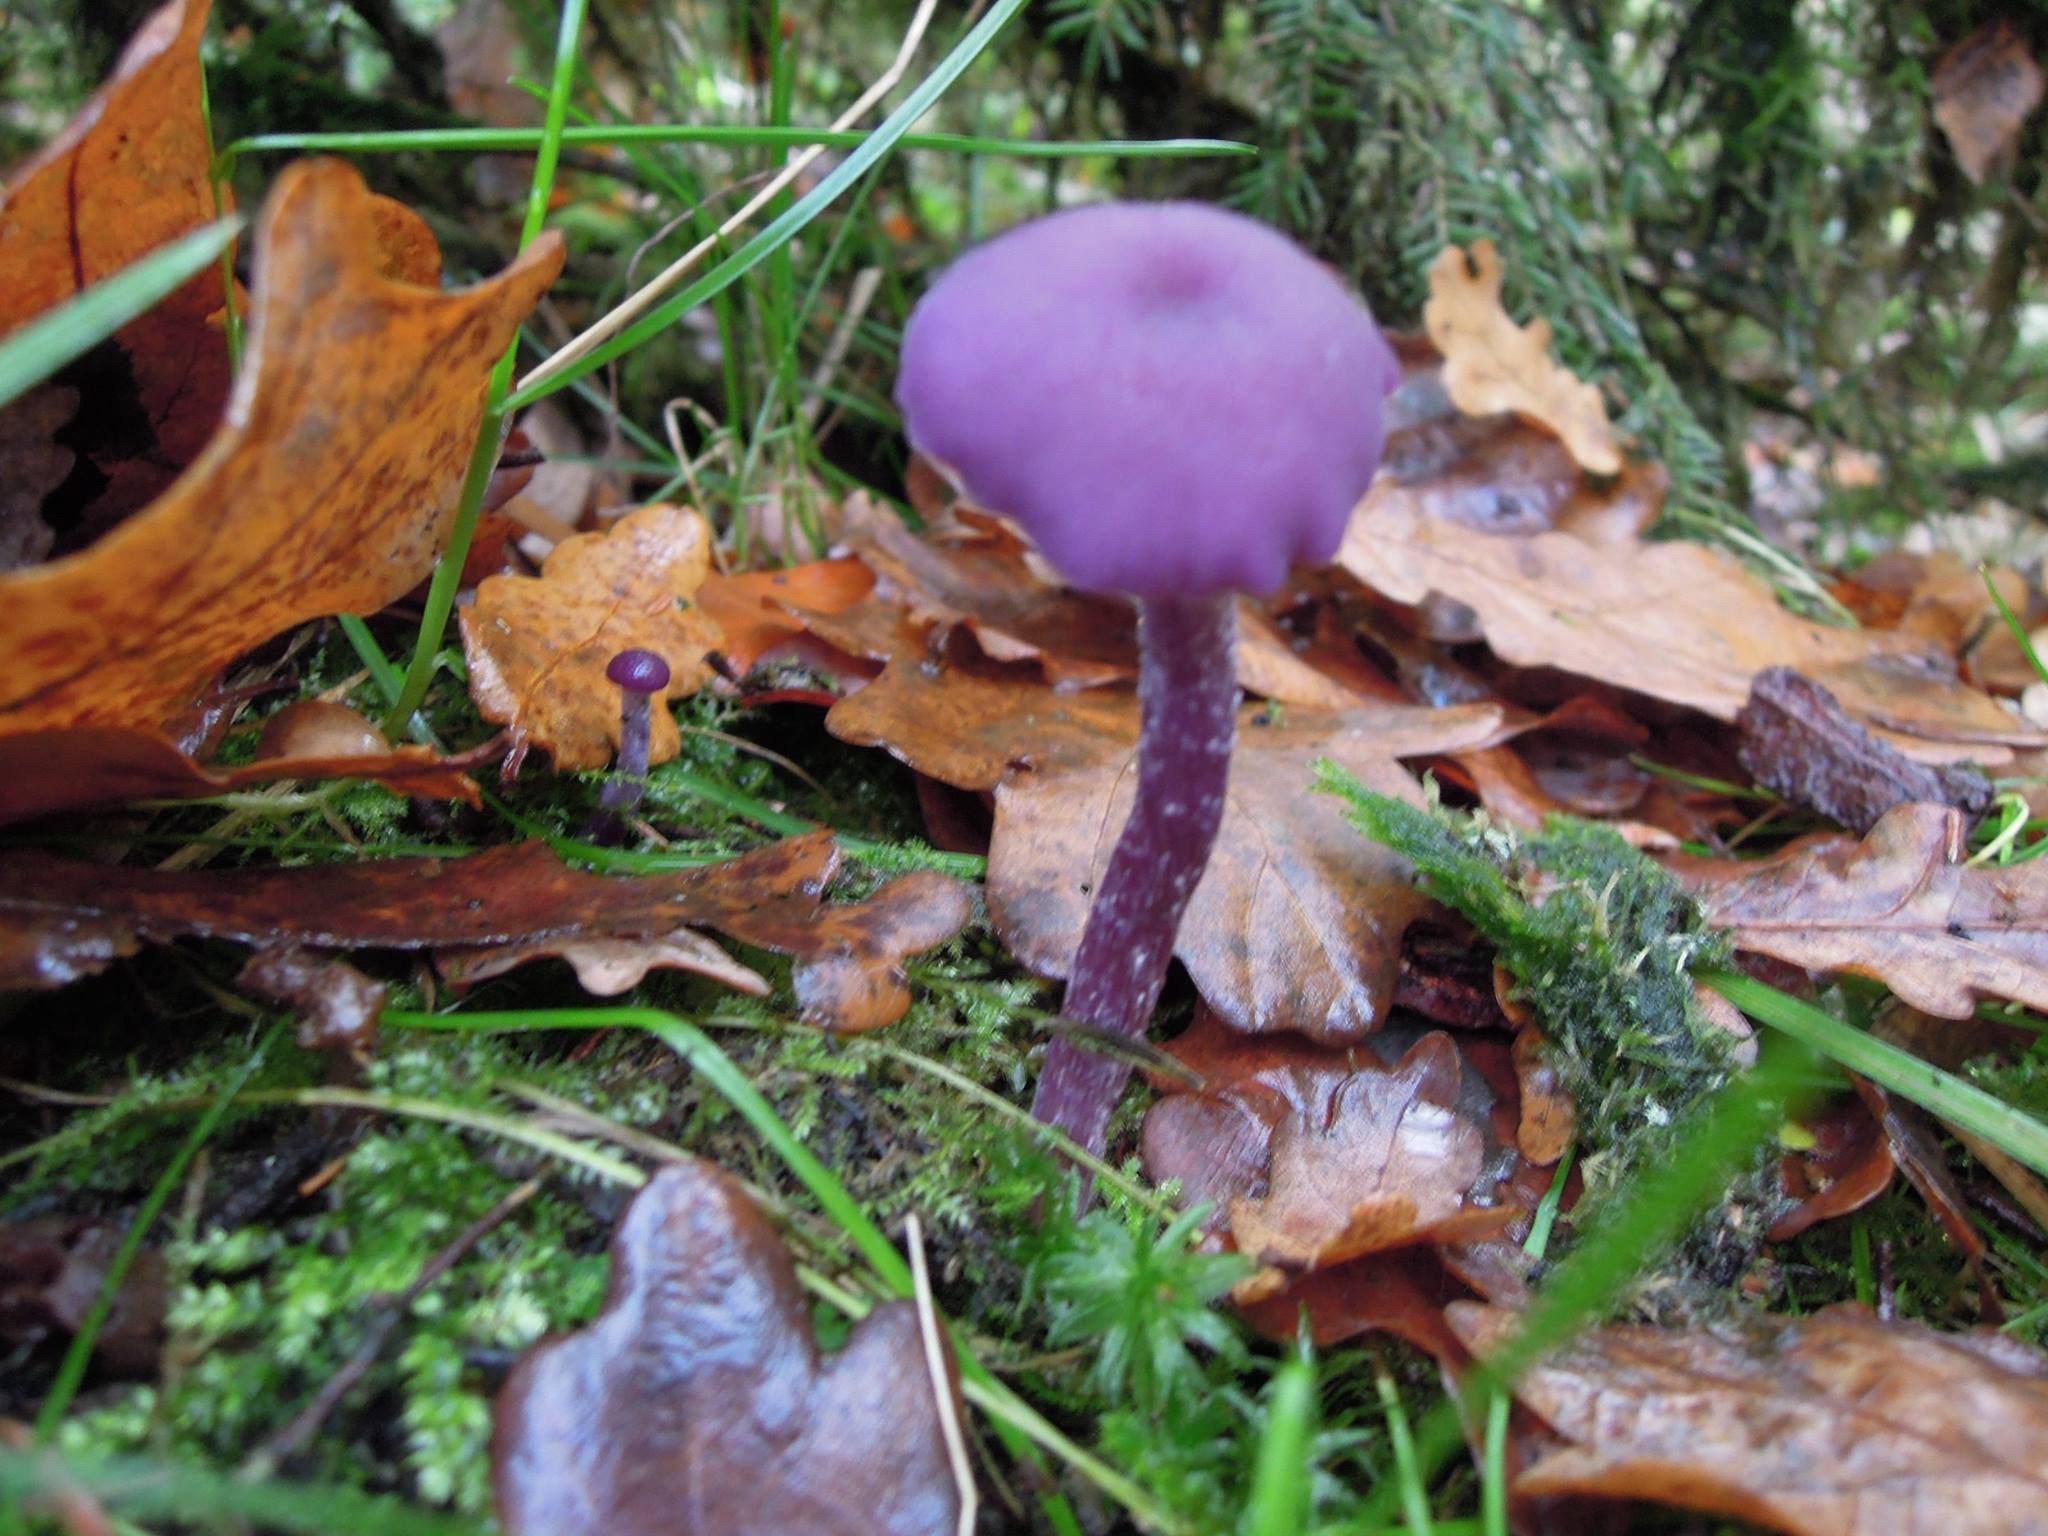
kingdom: Fungi
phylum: Basidiomycota
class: Agaricomycetes
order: Agaricales
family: Hydnangiaceae
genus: Laccaria
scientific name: Laccaria amethystina
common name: Amethyst deceiver
